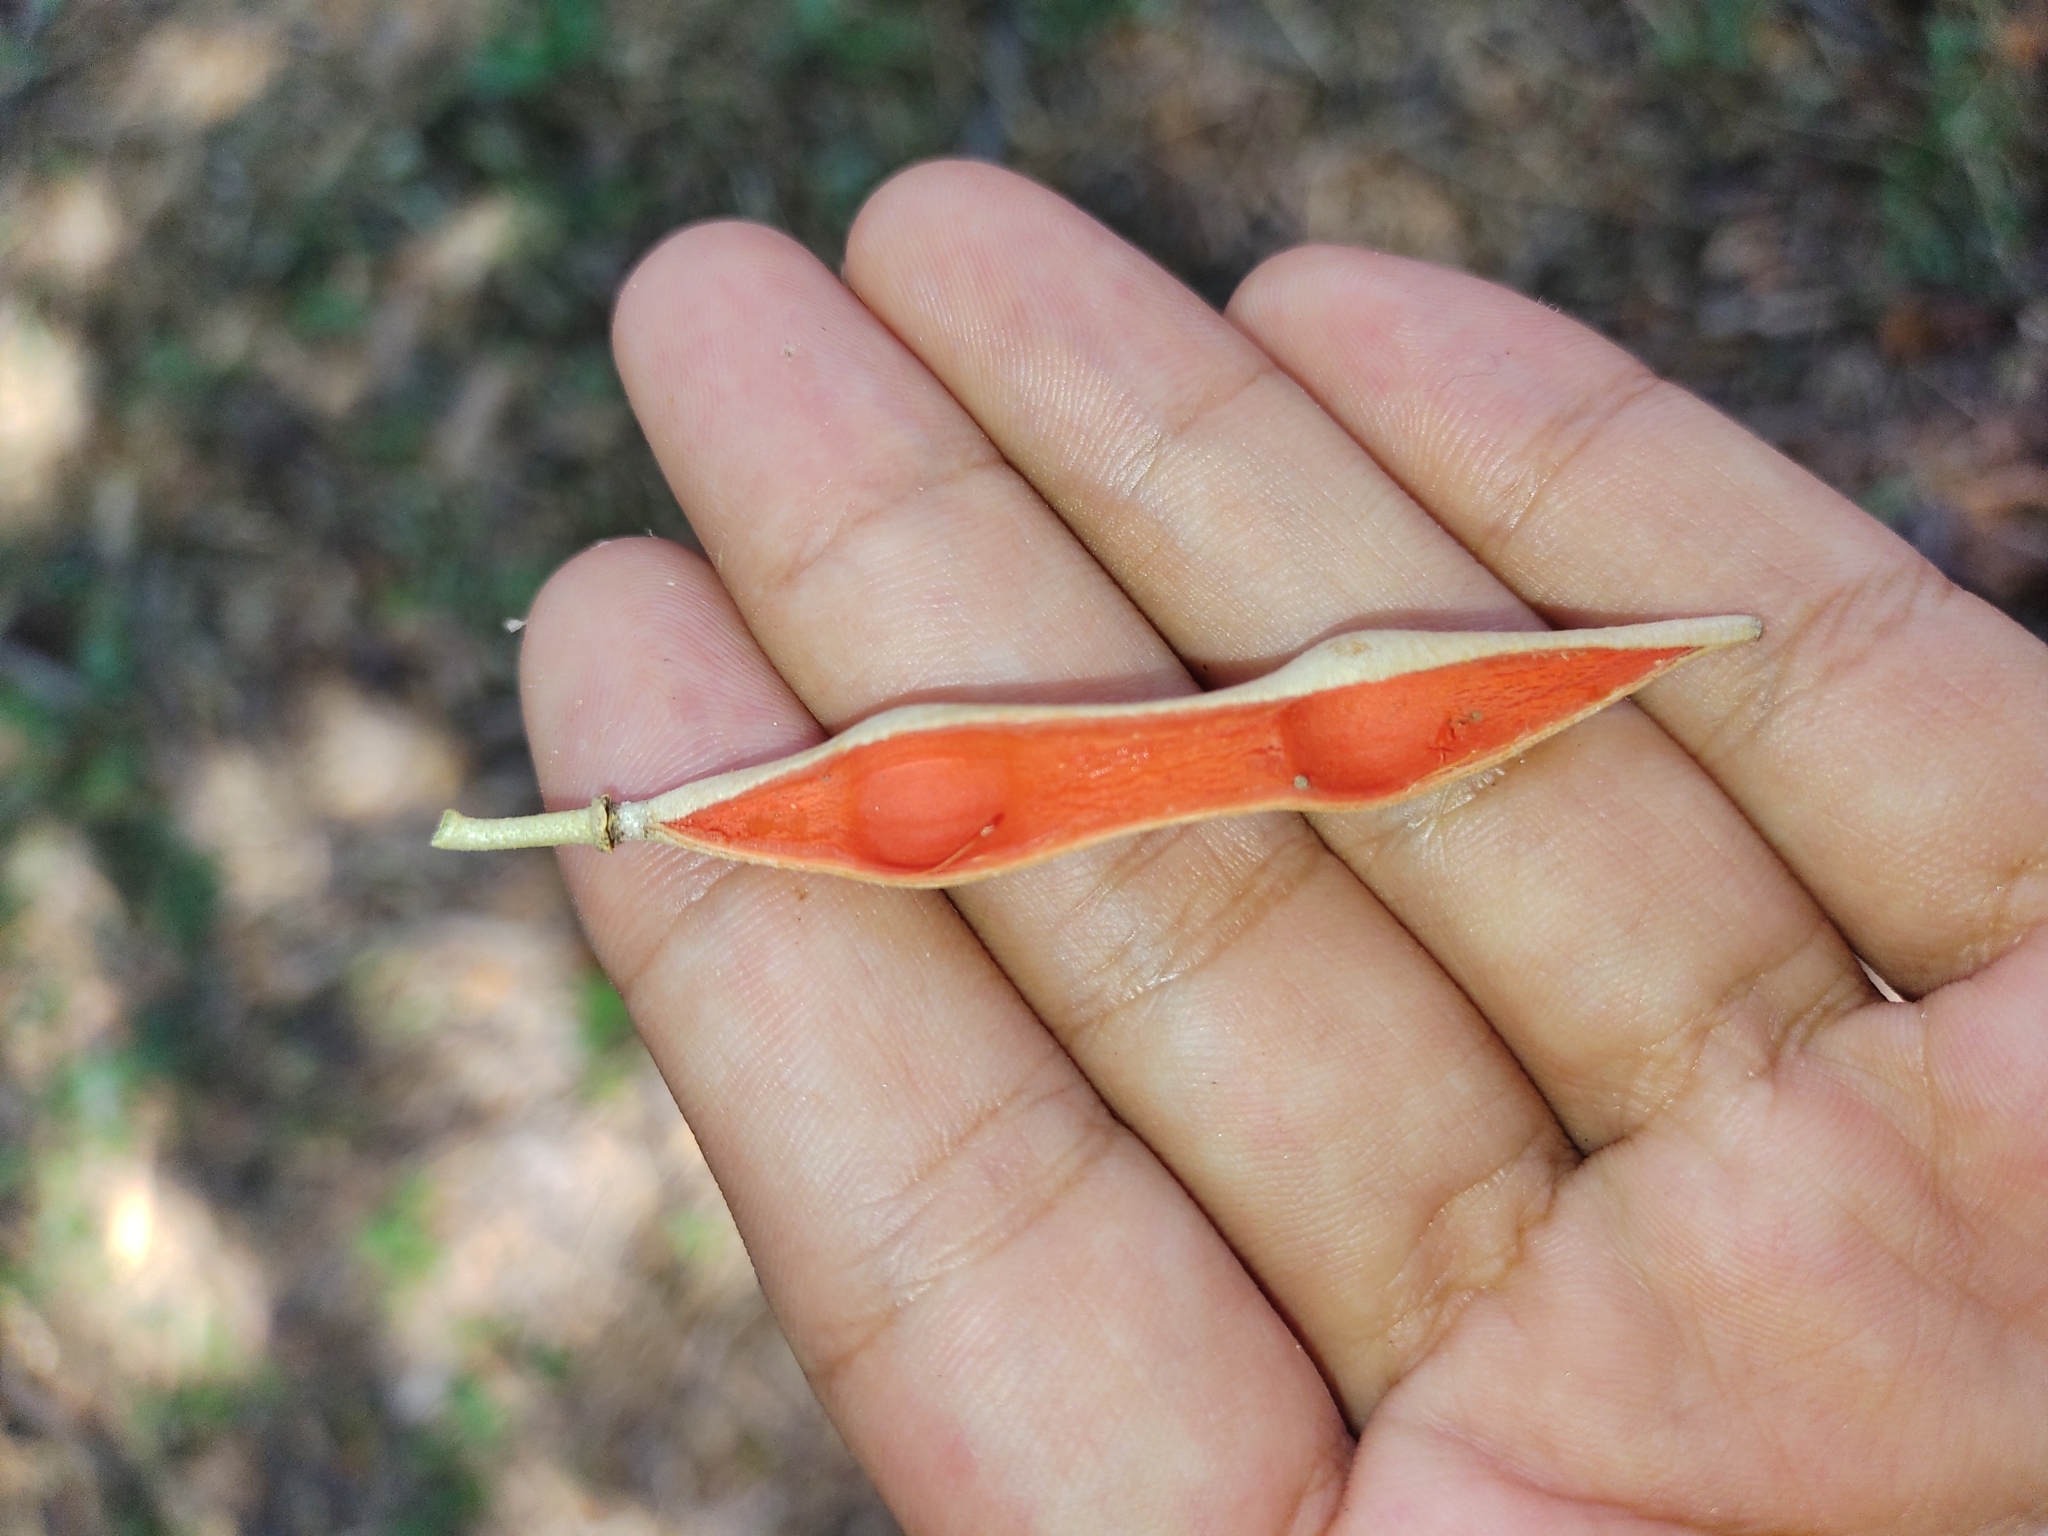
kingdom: Plantae
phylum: Tracheophyta
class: Magnoliopsida
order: Brassicales
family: Capparaceae
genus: Quadrella
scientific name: Quadrella odoratissima
